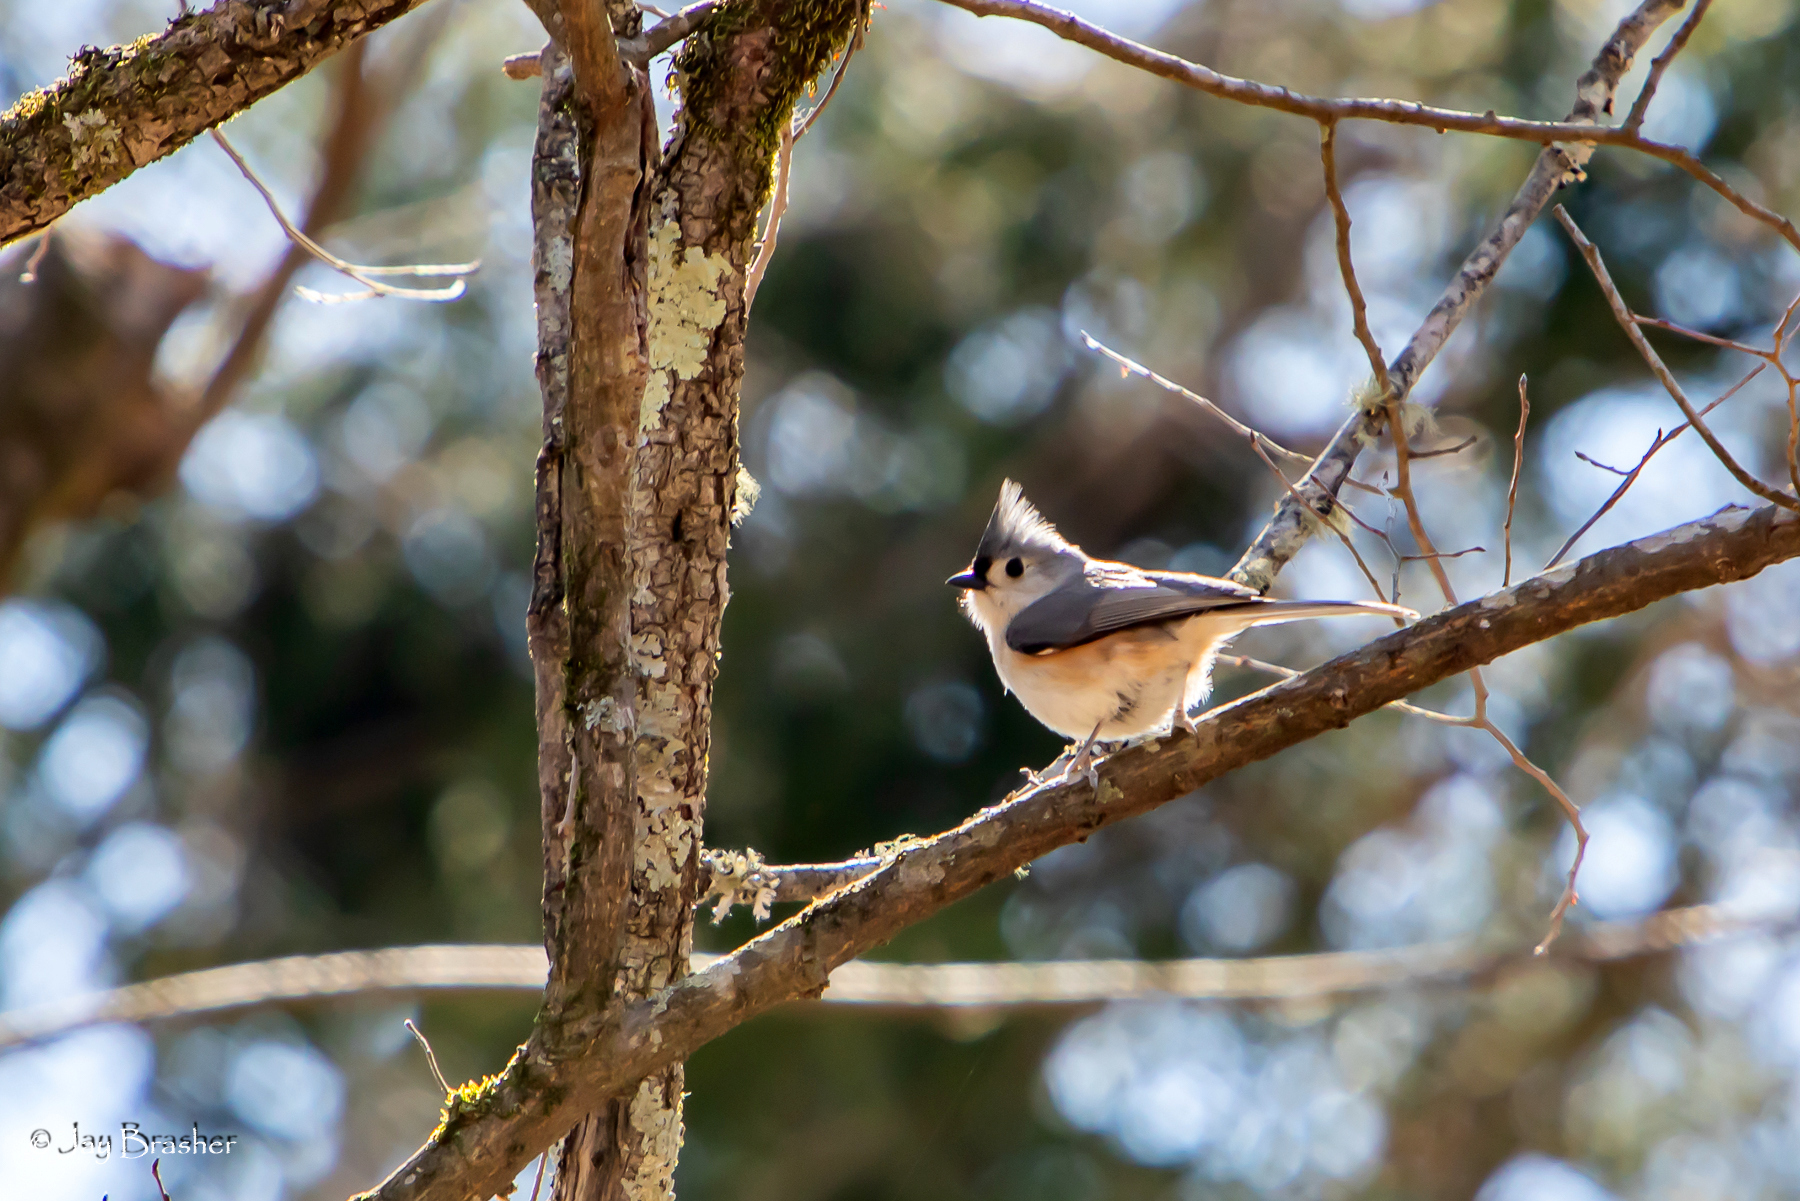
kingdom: Animalia
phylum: Chordata
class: Aves
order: Passeriformes
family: Paridae
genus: Baeolophus
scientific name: Baeolophus bicolor
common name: Tufted titmouse
